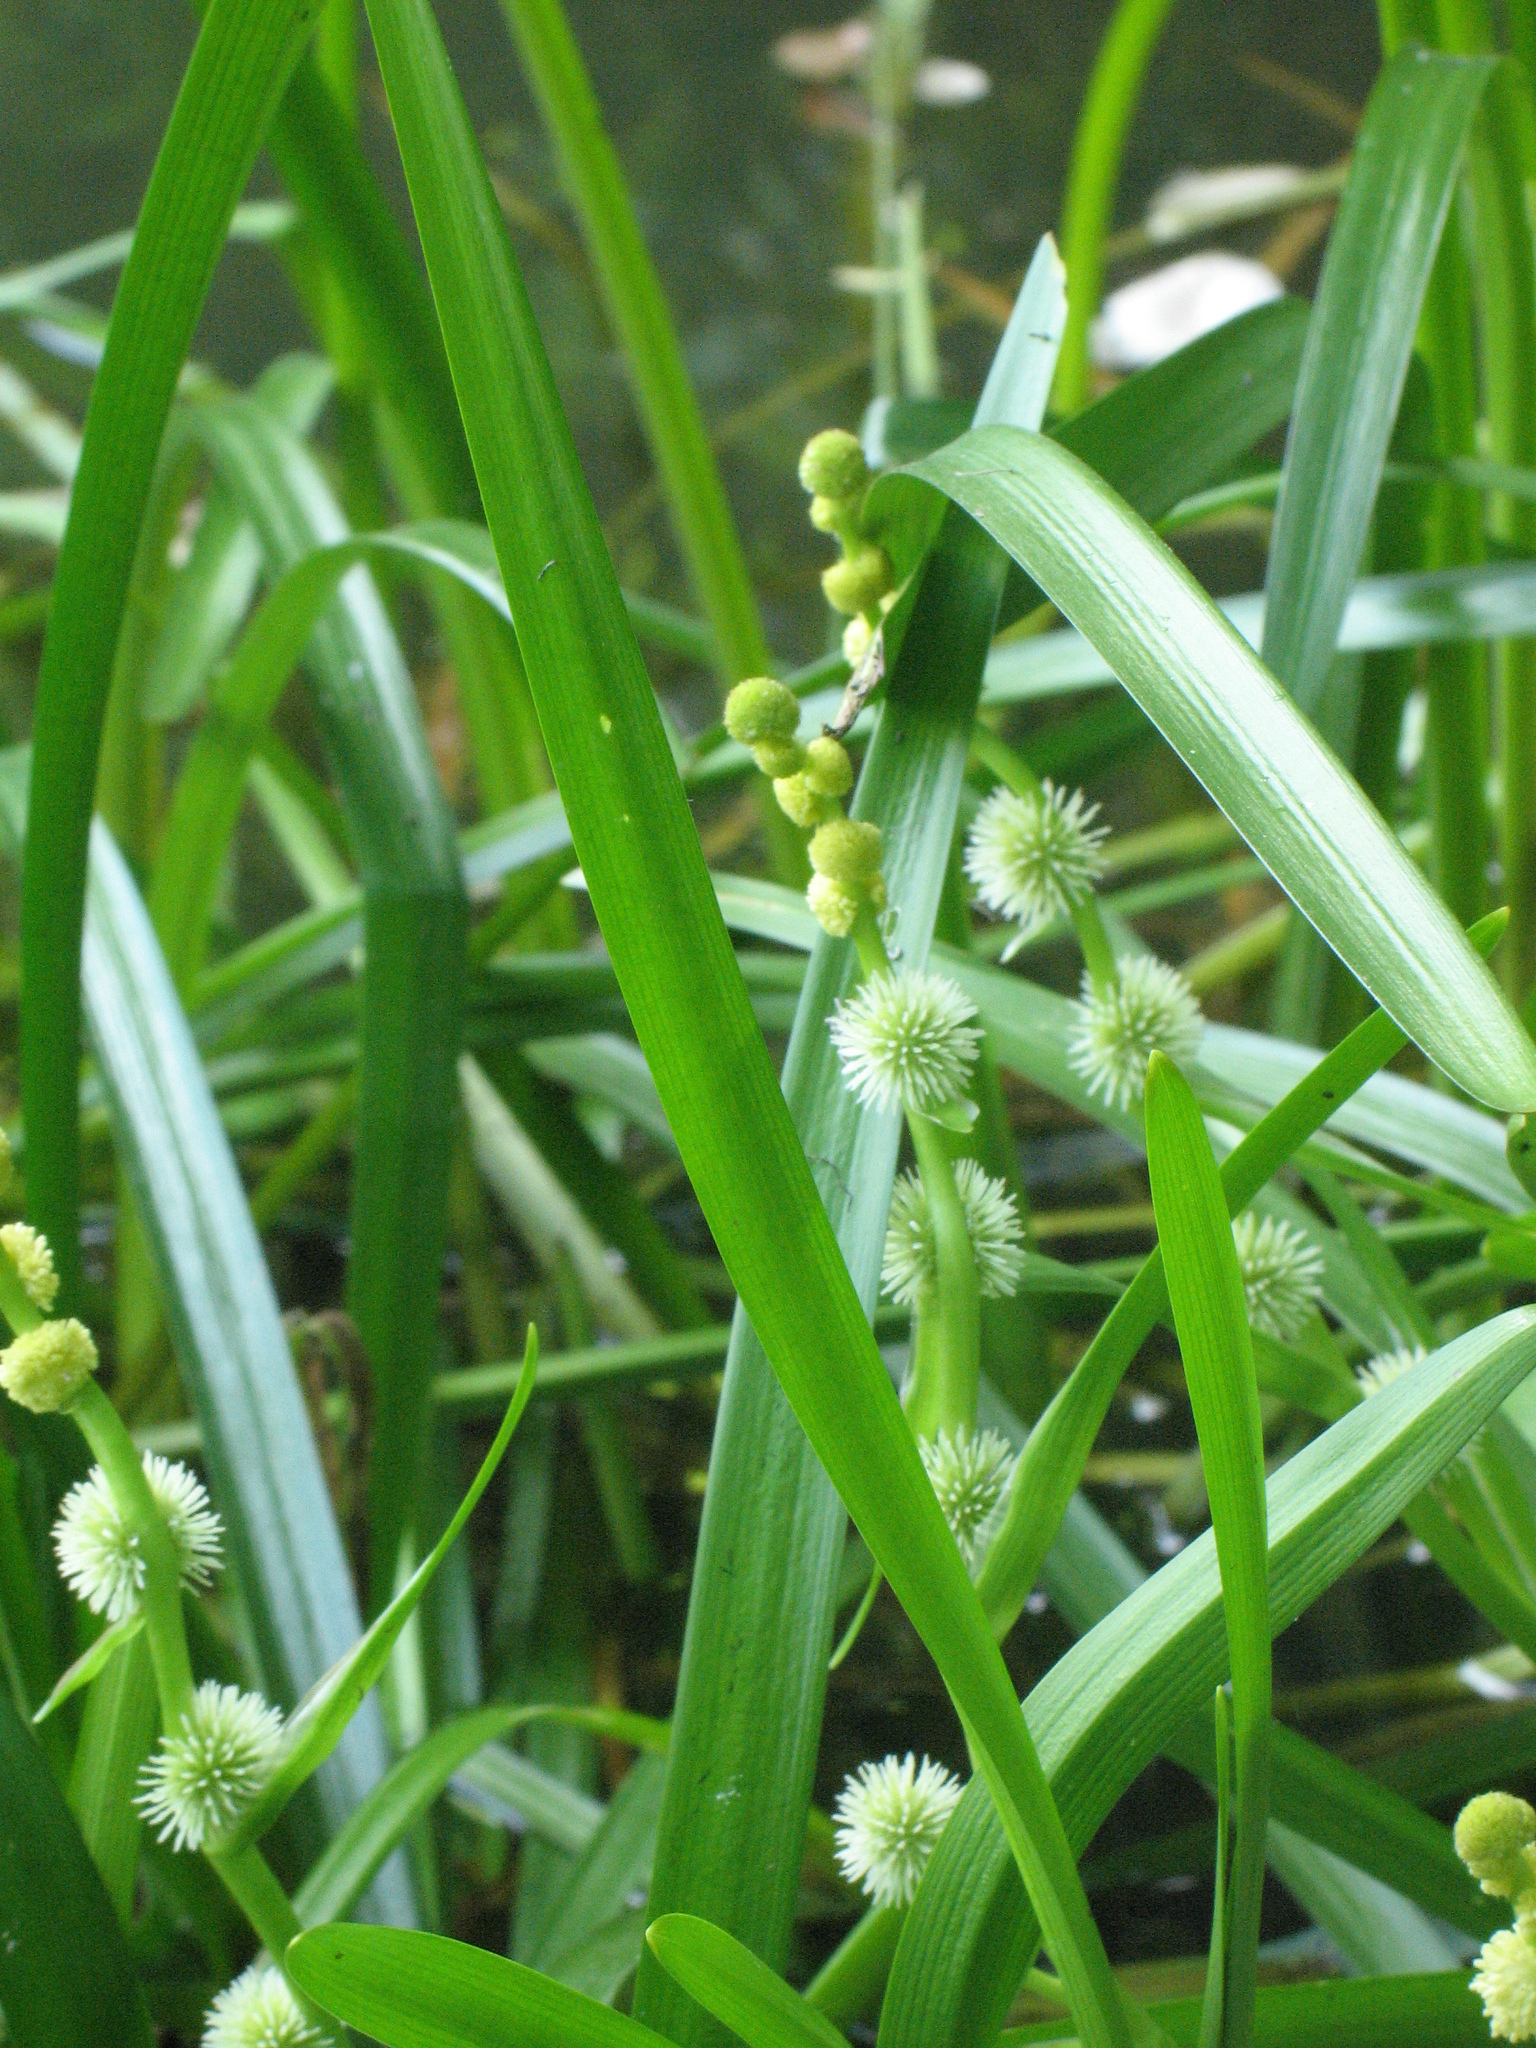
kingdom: Plantae
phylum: Tracheophyta
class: Liliopsida
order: Poales
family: Typhaceae
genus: Sparganium
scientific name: Sparganium emersum
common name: Unbranched bur-reed
